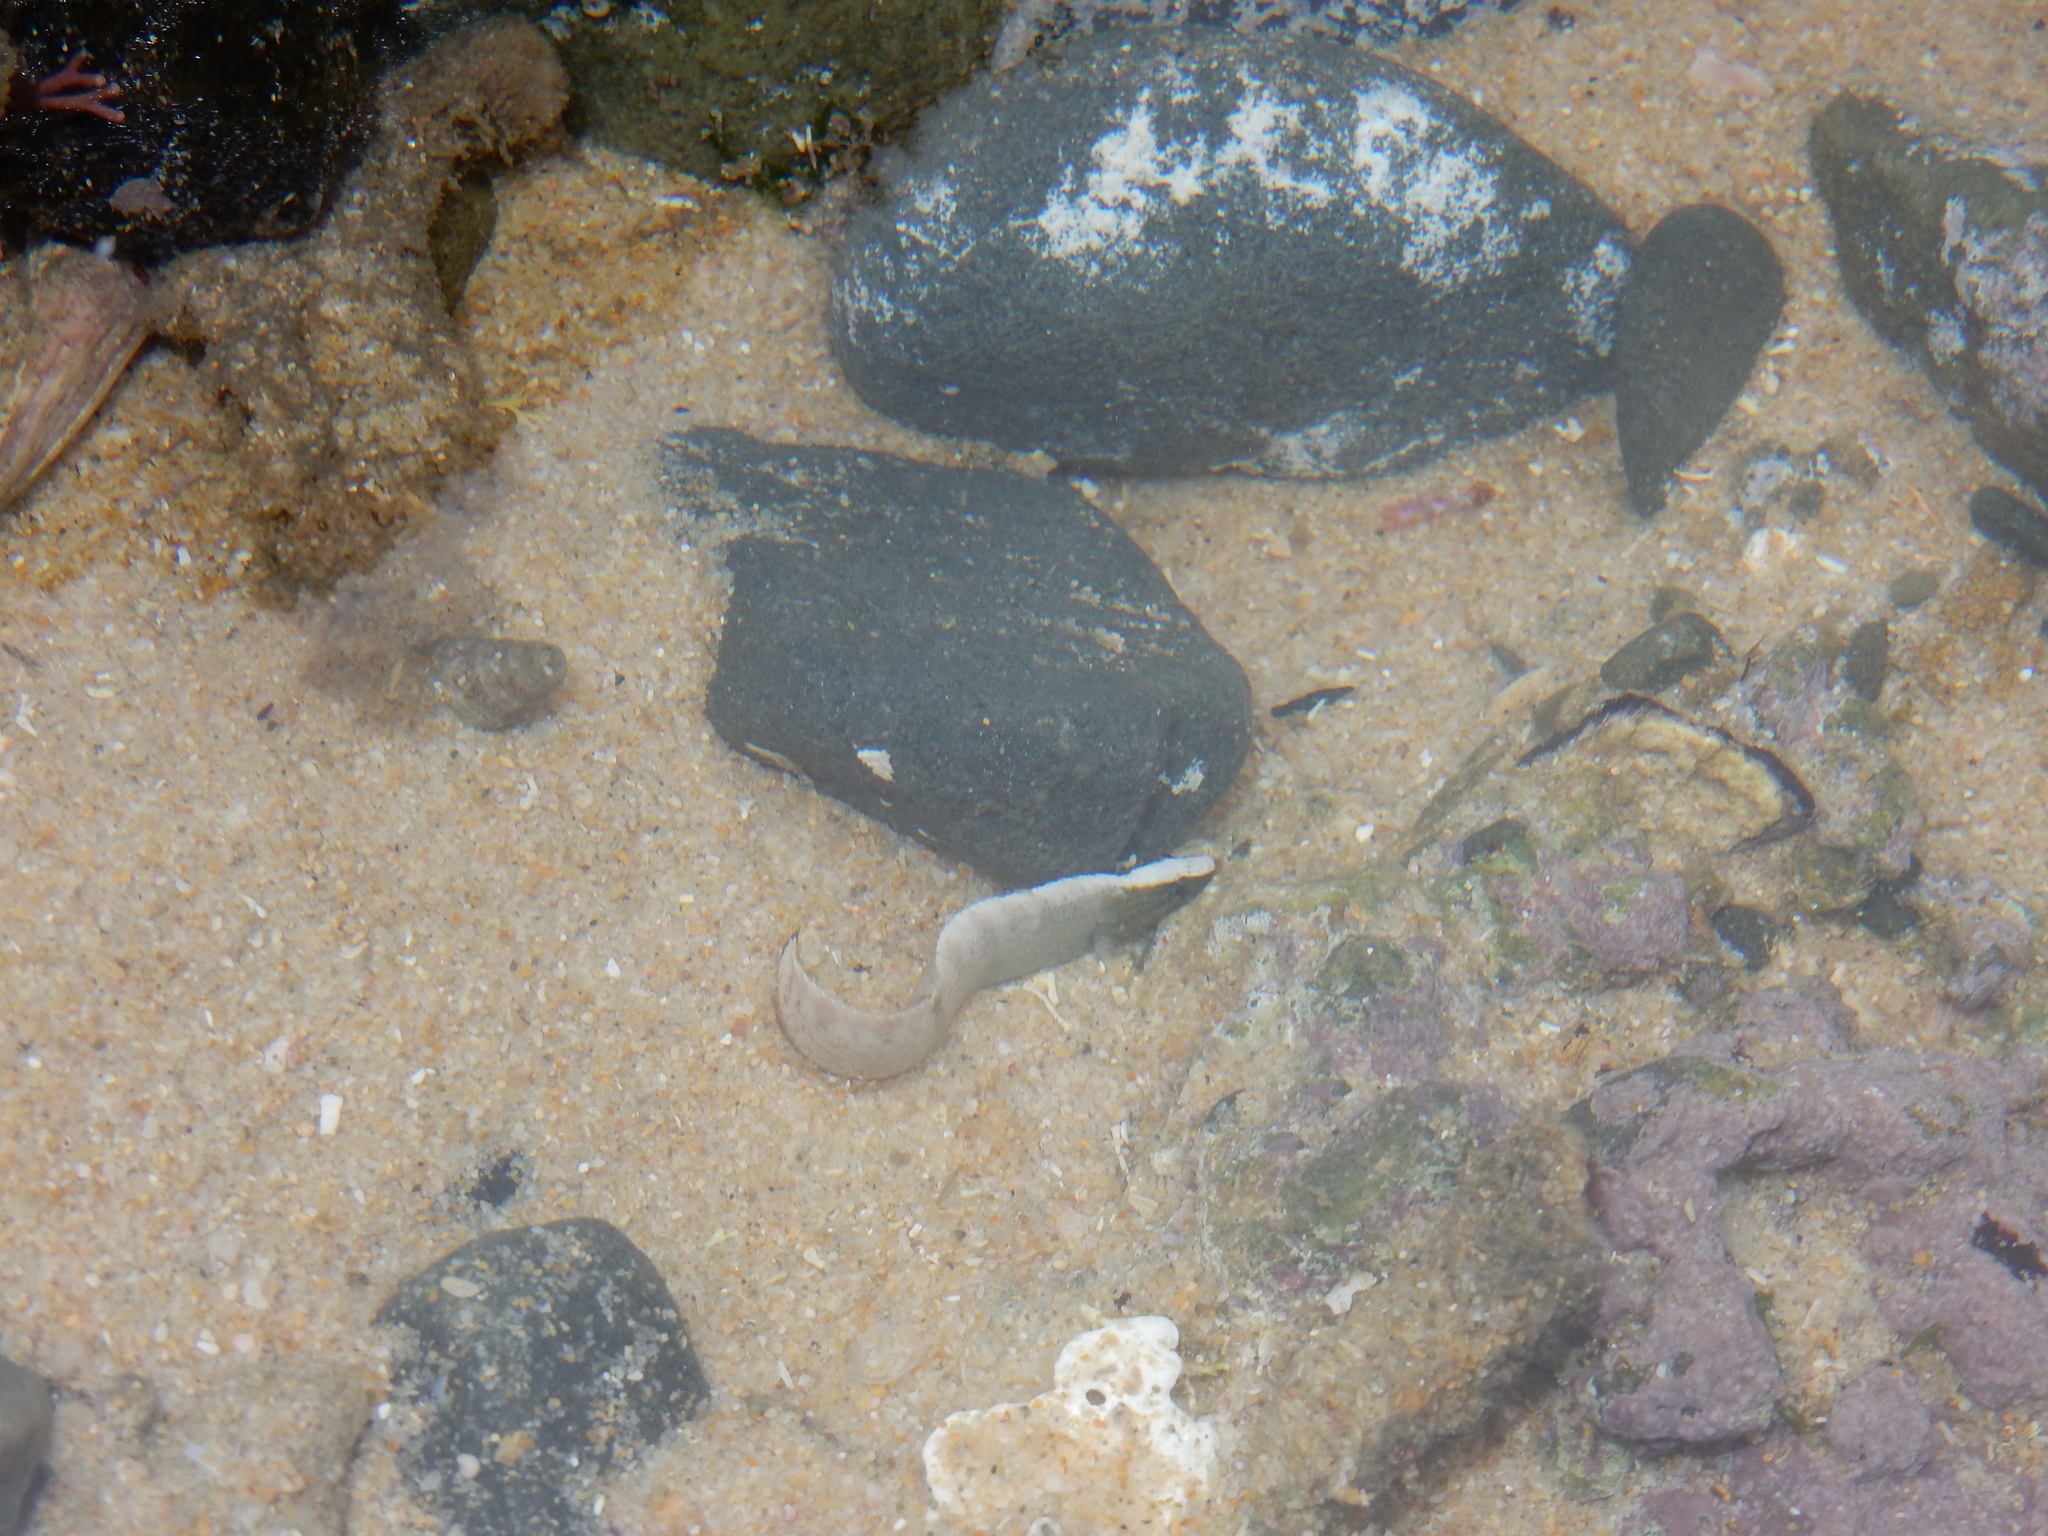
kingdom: Animalia
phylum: Chordata
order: Perciformes
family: Clinidae
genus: Muraenoclinus
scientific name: Muraenoclinus dorsalis
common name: Nosestripe klipfish
